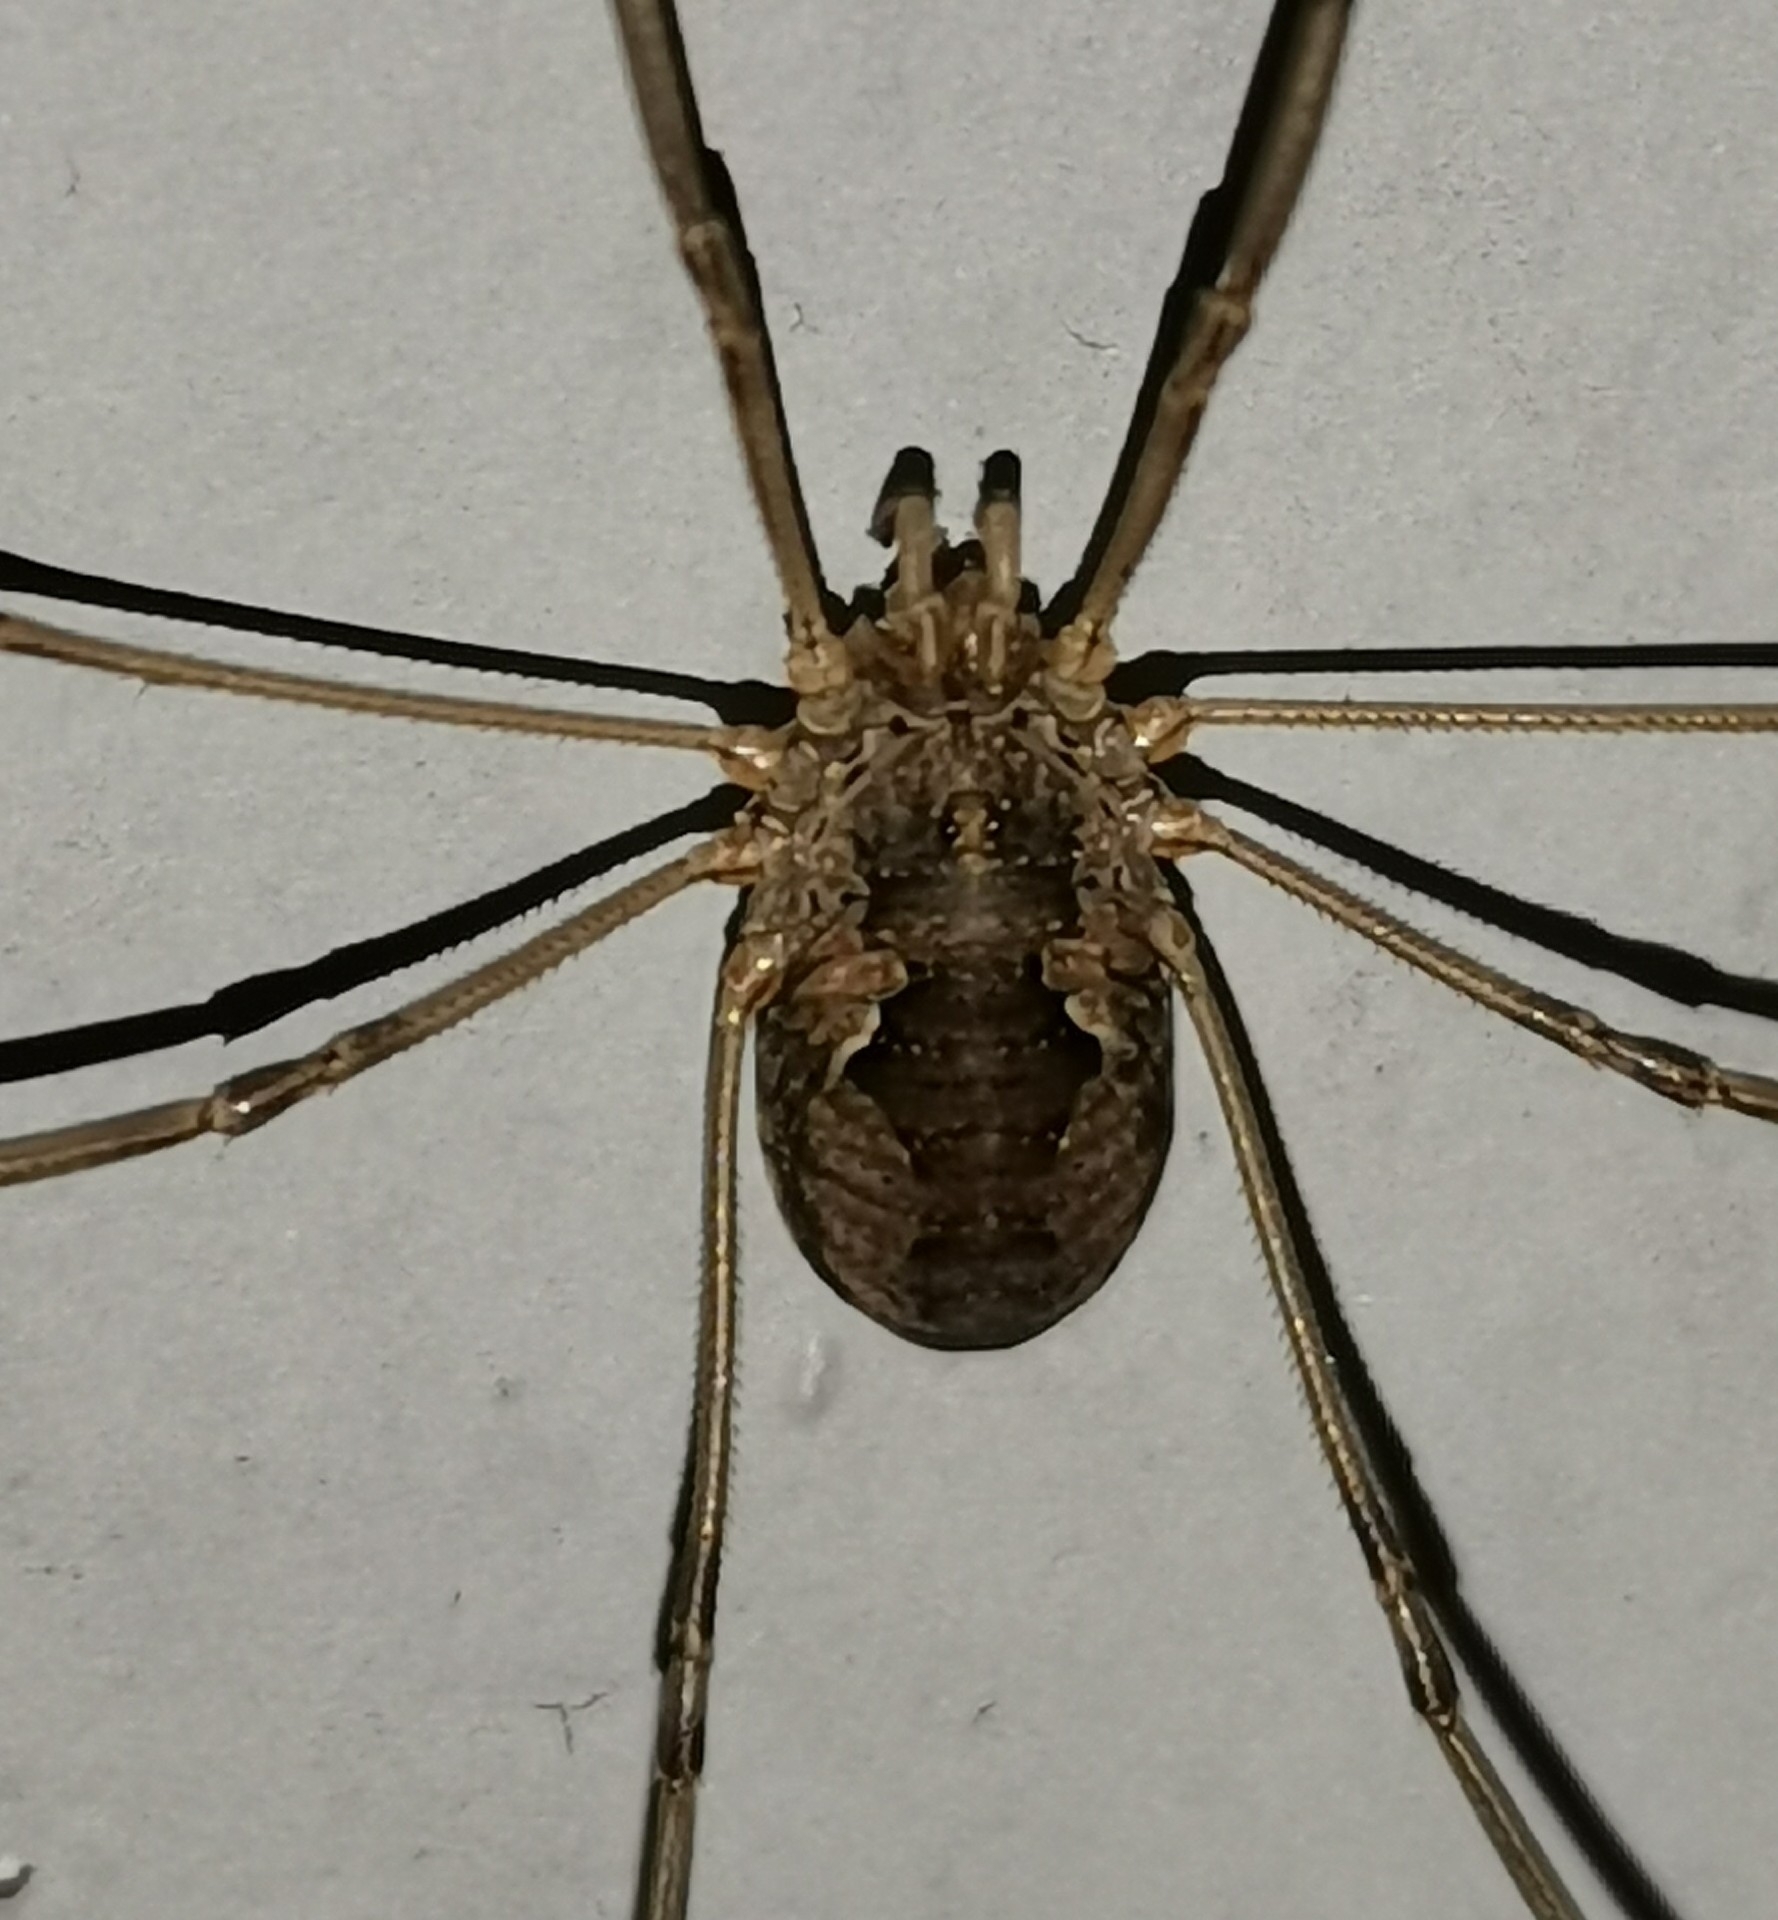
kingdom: Animalia
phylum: Arthropoda
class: Arachnida
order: Opiliones
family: Phalangiidae
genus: Phalangium
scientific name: Phalangium opilio
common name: Daddy longleg
